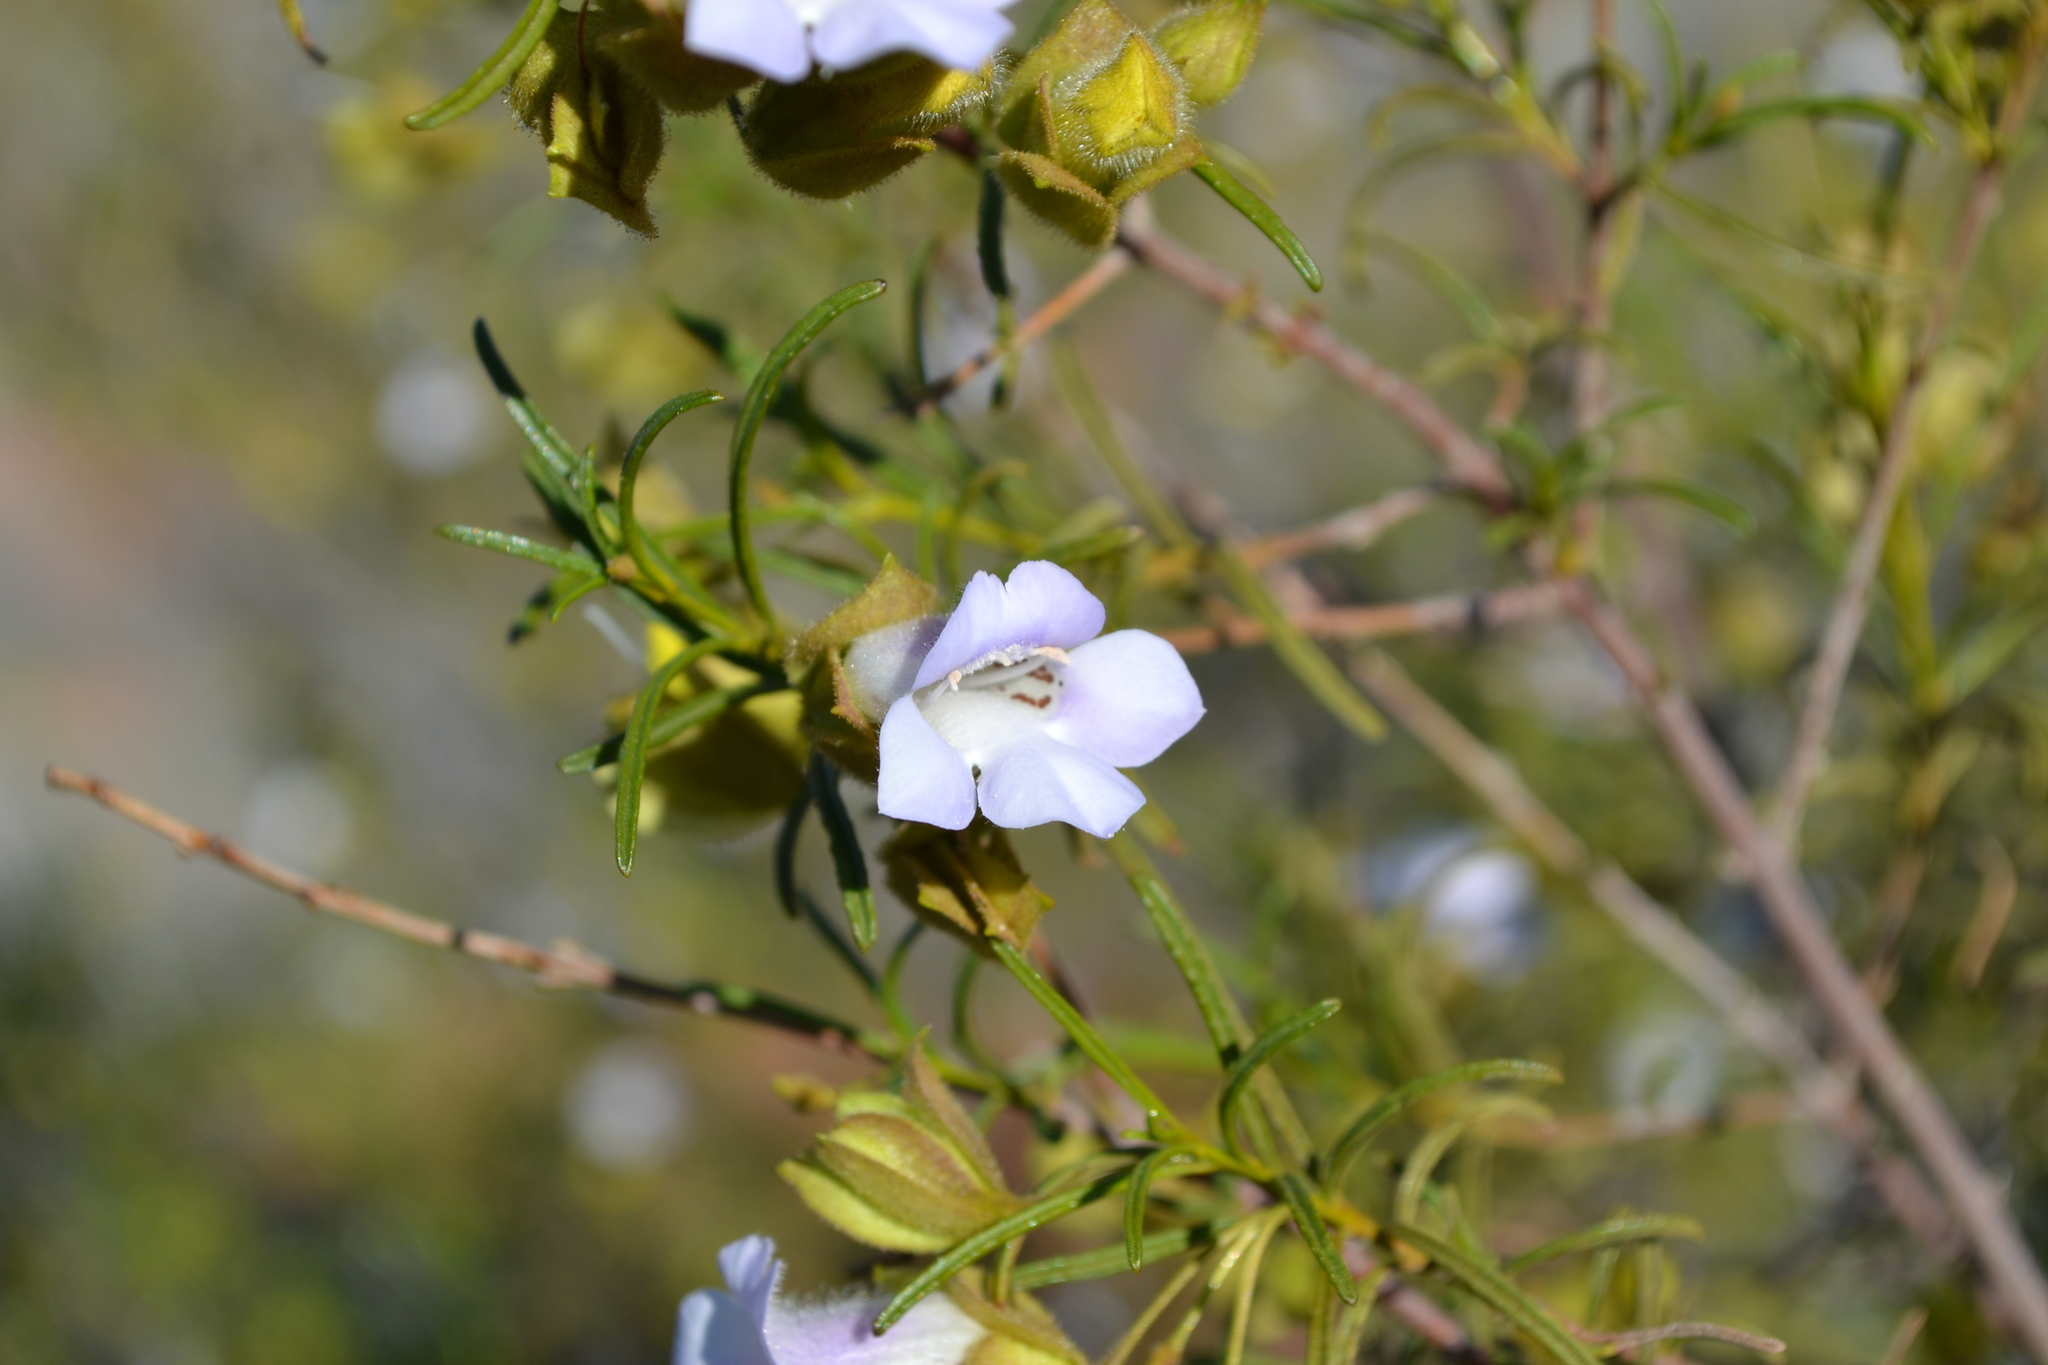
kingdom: Plantae
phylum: Tracheophyta
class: Magnoliopsida
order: Lamiales
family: Scrophulariaceae
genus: Eremophila
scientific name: Eremophila spuria
